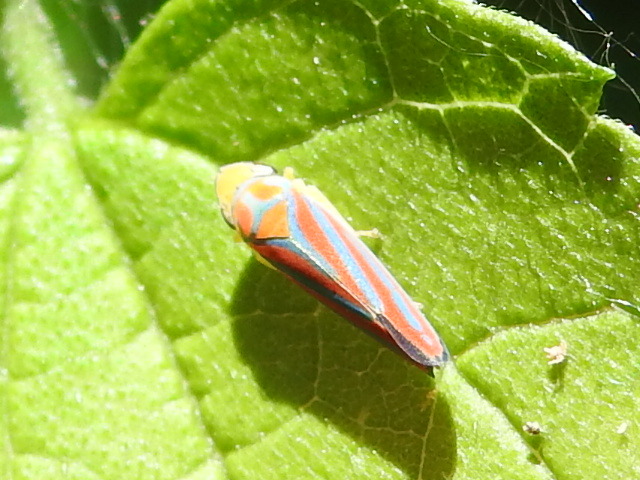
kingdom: Animalia
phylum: Arthropoda
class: Insecta
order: Hemiptera
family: Cicadellidae
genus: Graphocephala
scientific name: Graphocephala coccinea
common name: Candy-striped leafhopper
